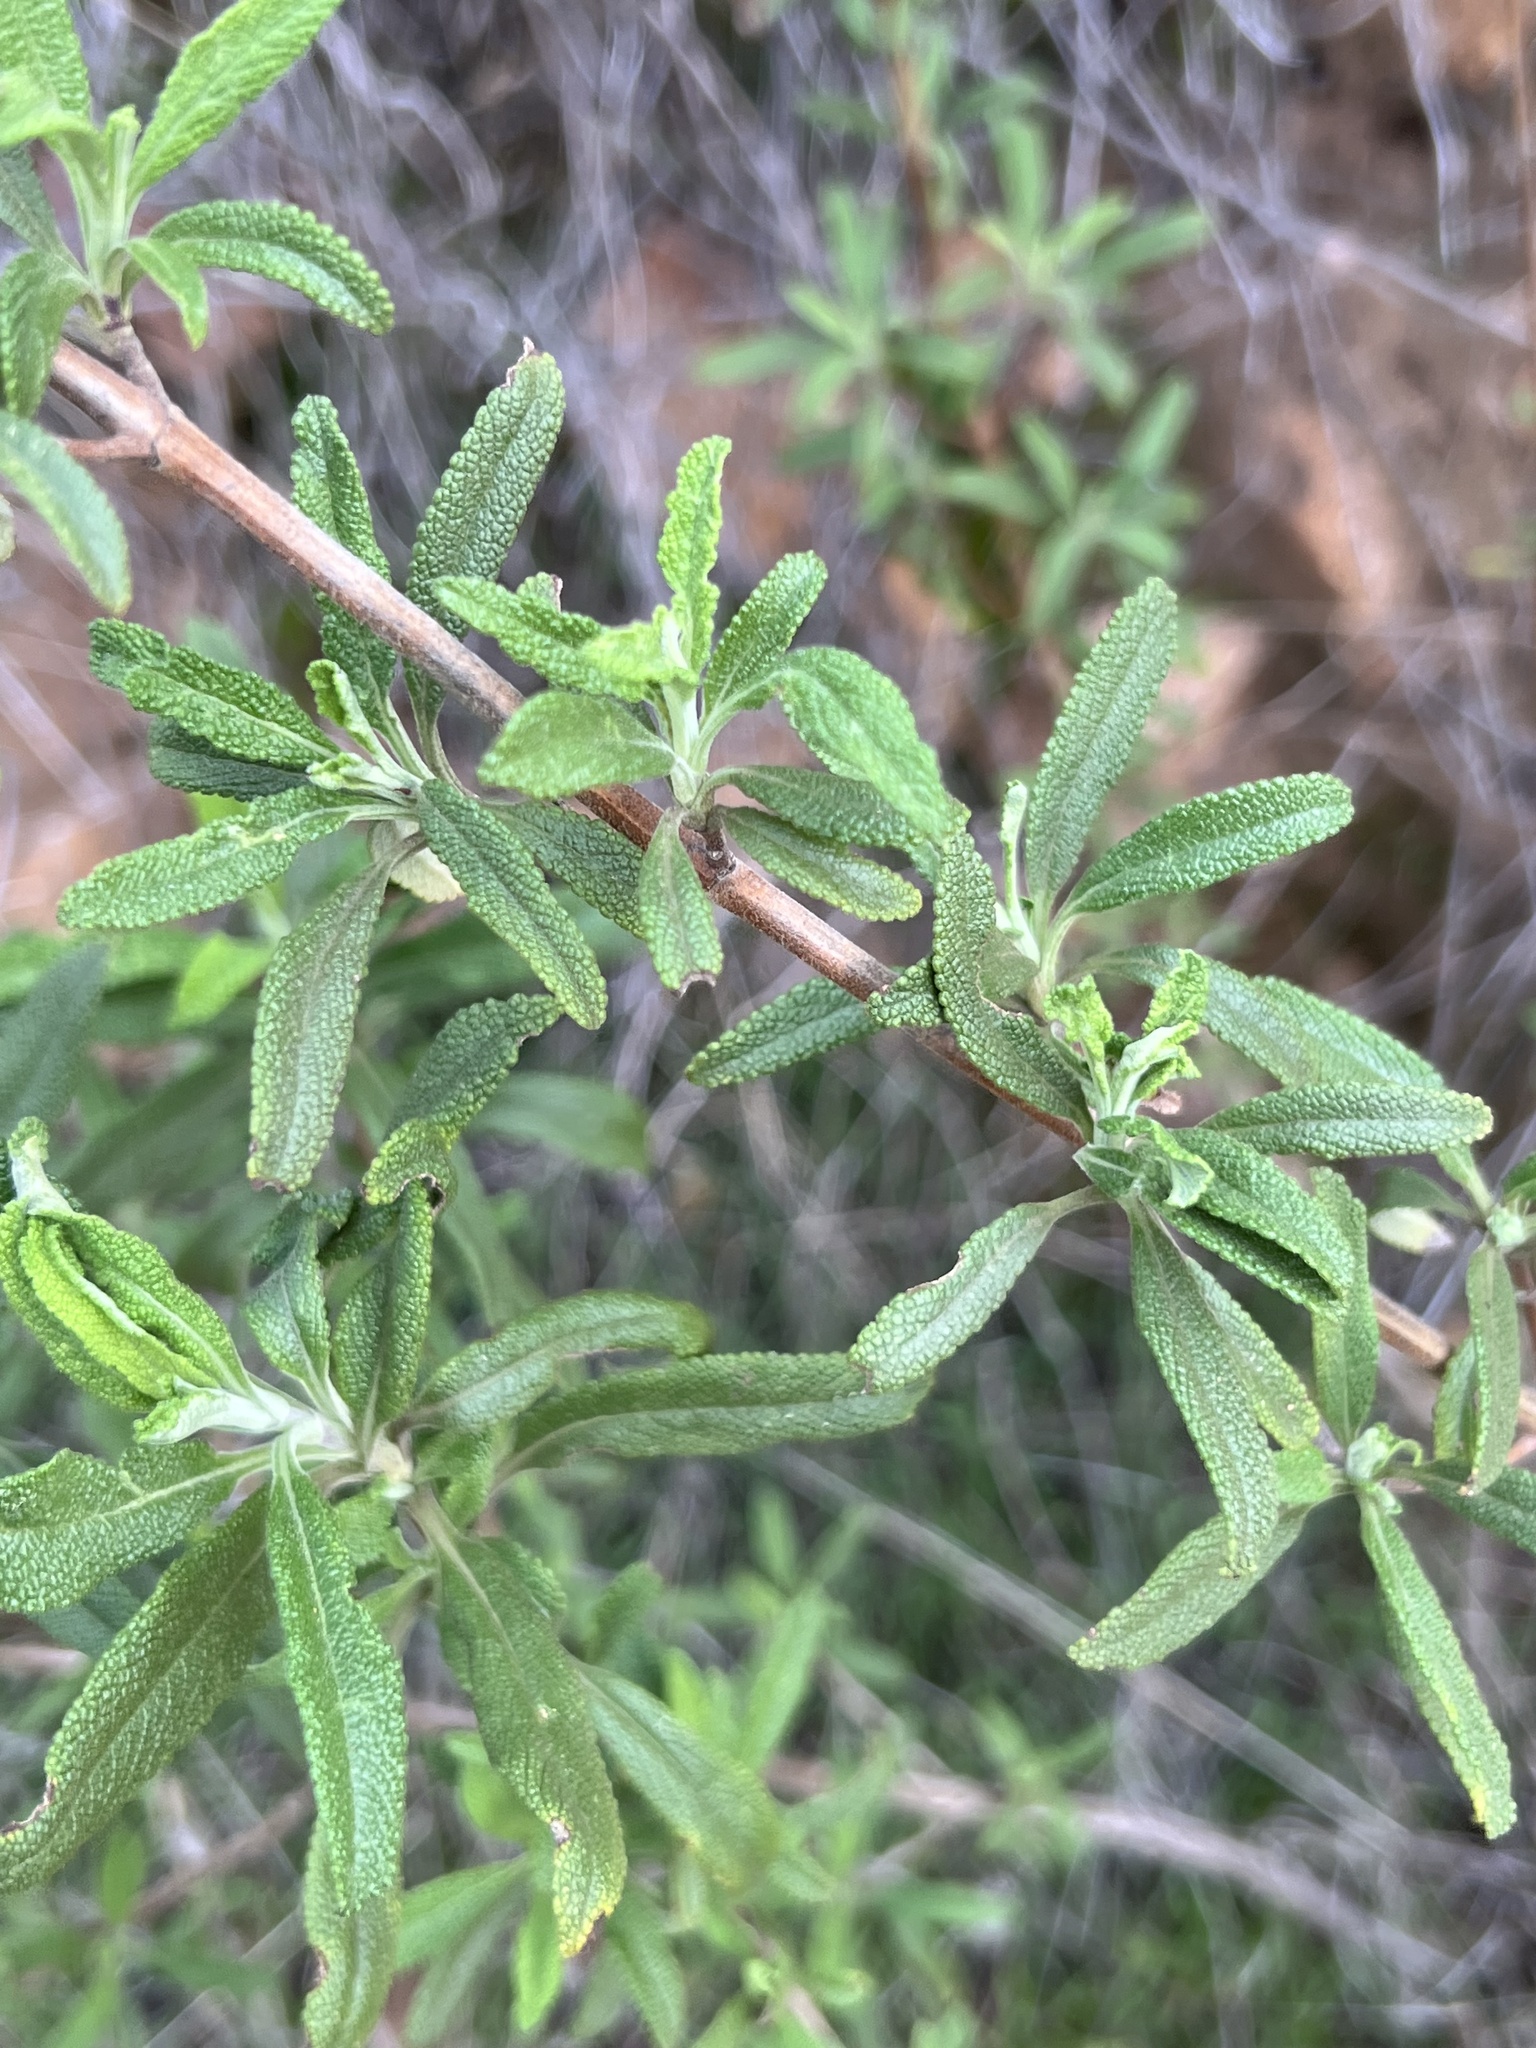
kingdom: Plantae
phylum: Tracheophyta
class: Magnoliopsida
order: Lamiales
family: Lamiaceae
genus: Salvia
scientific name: Salvia mellifera
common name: Black sage
